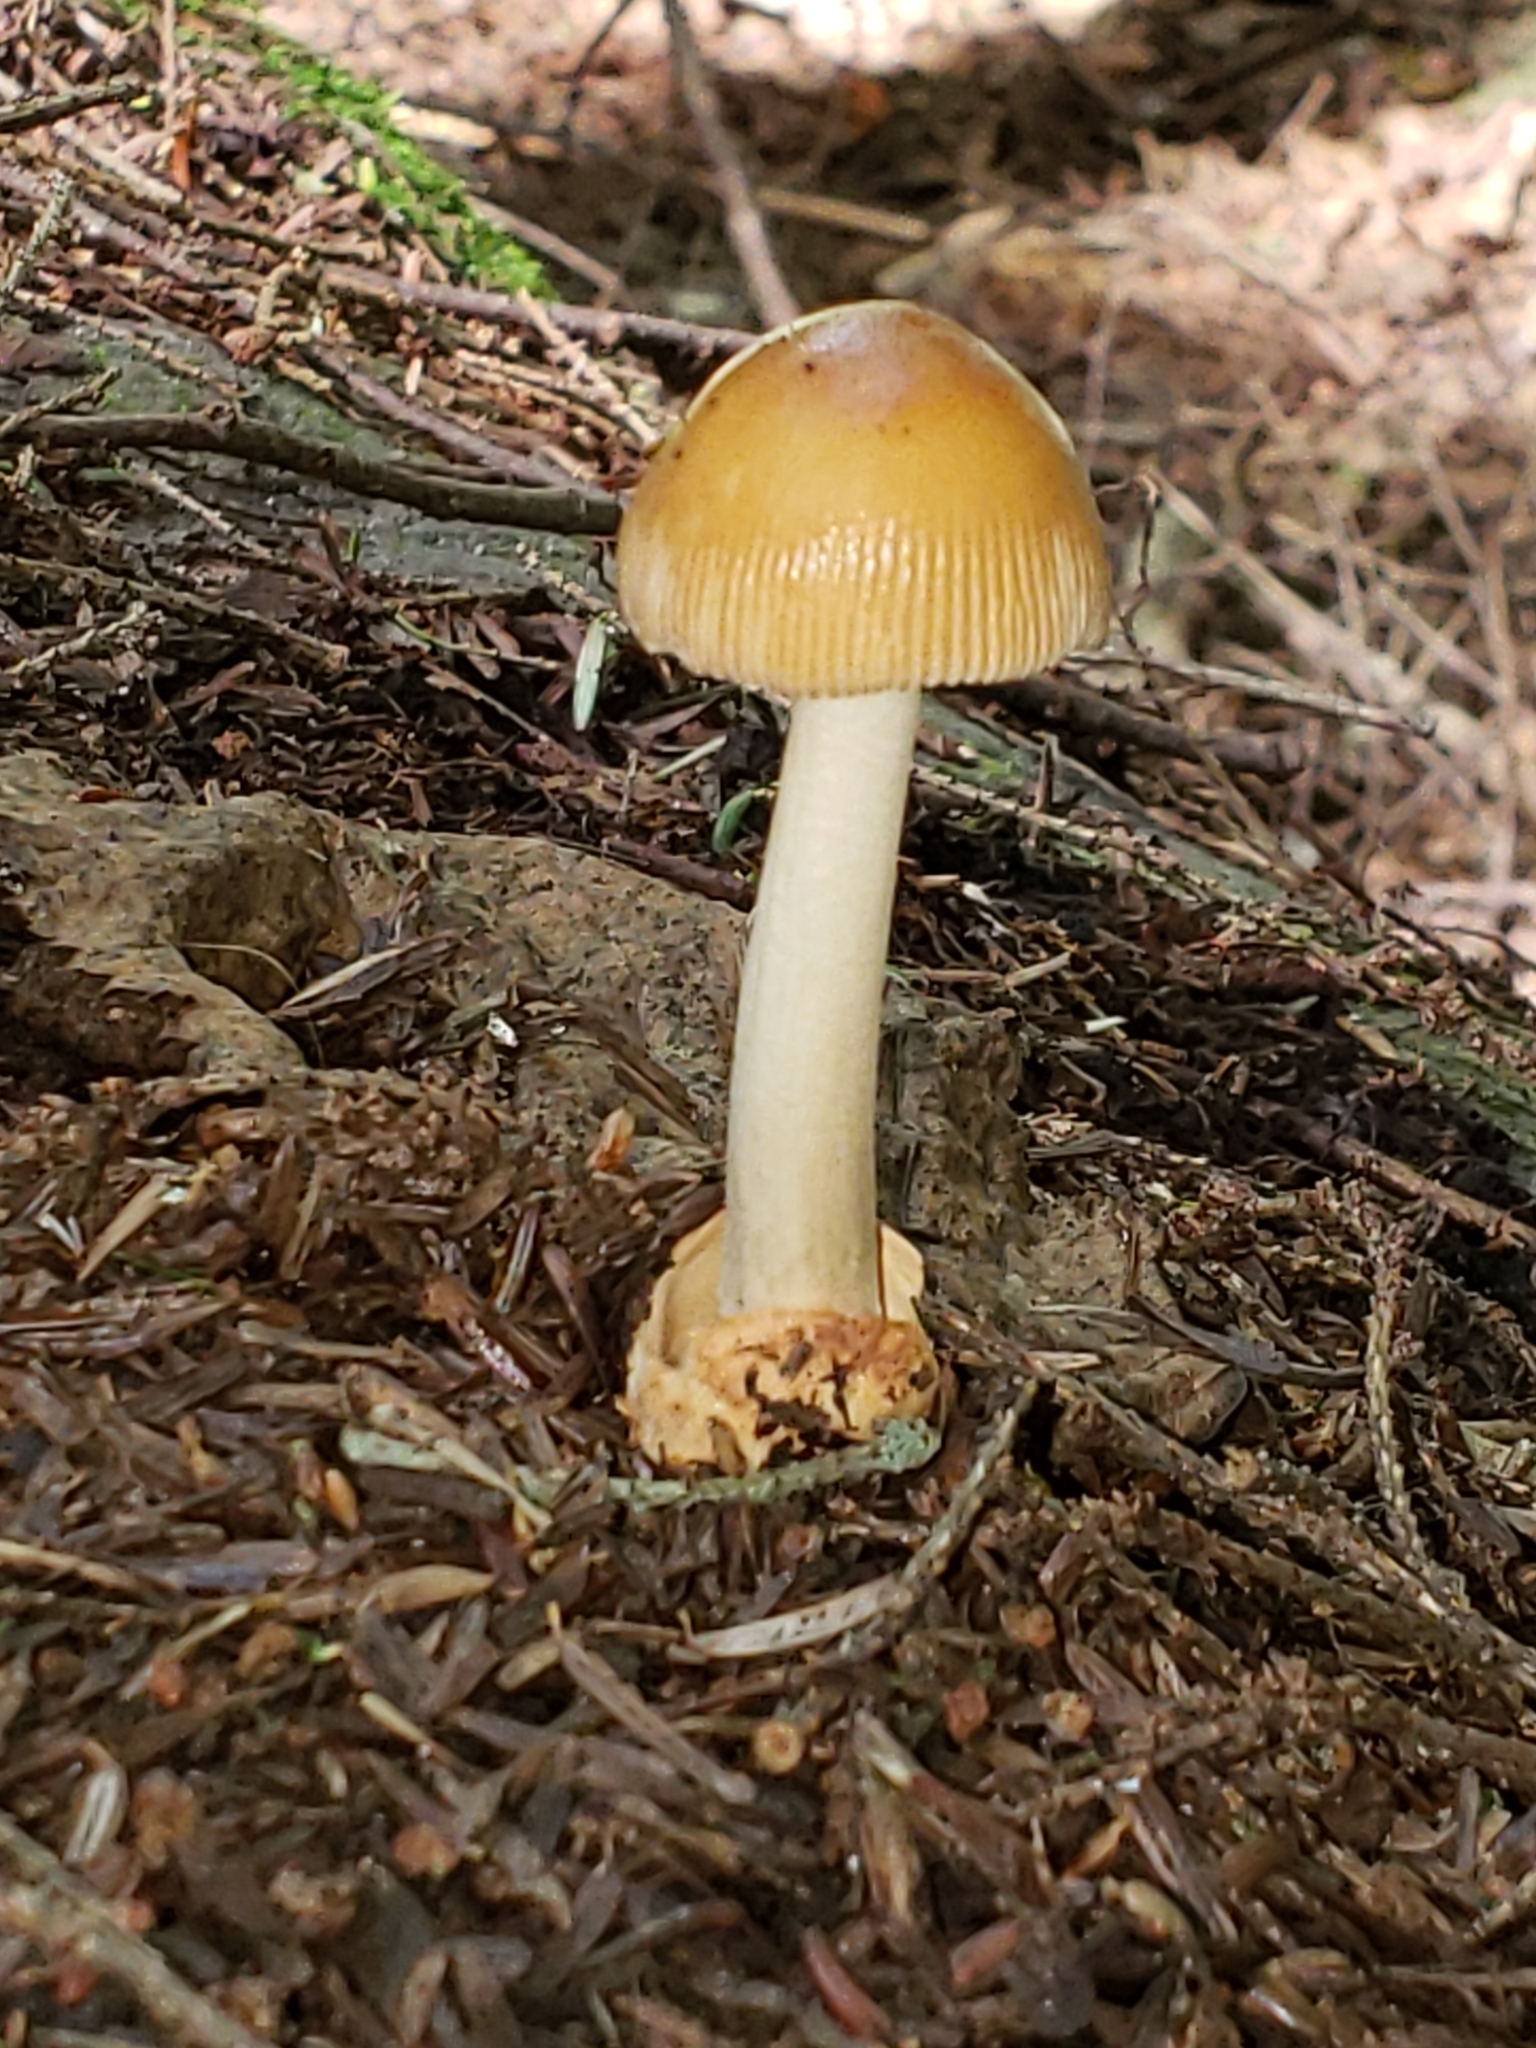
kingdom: Fungi
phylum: Basidiomycota
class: Agaricomycetes
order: Agaricales
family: Amanitaceae
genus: Amanita
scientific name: Amanita fulva
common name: Tawny grisette
